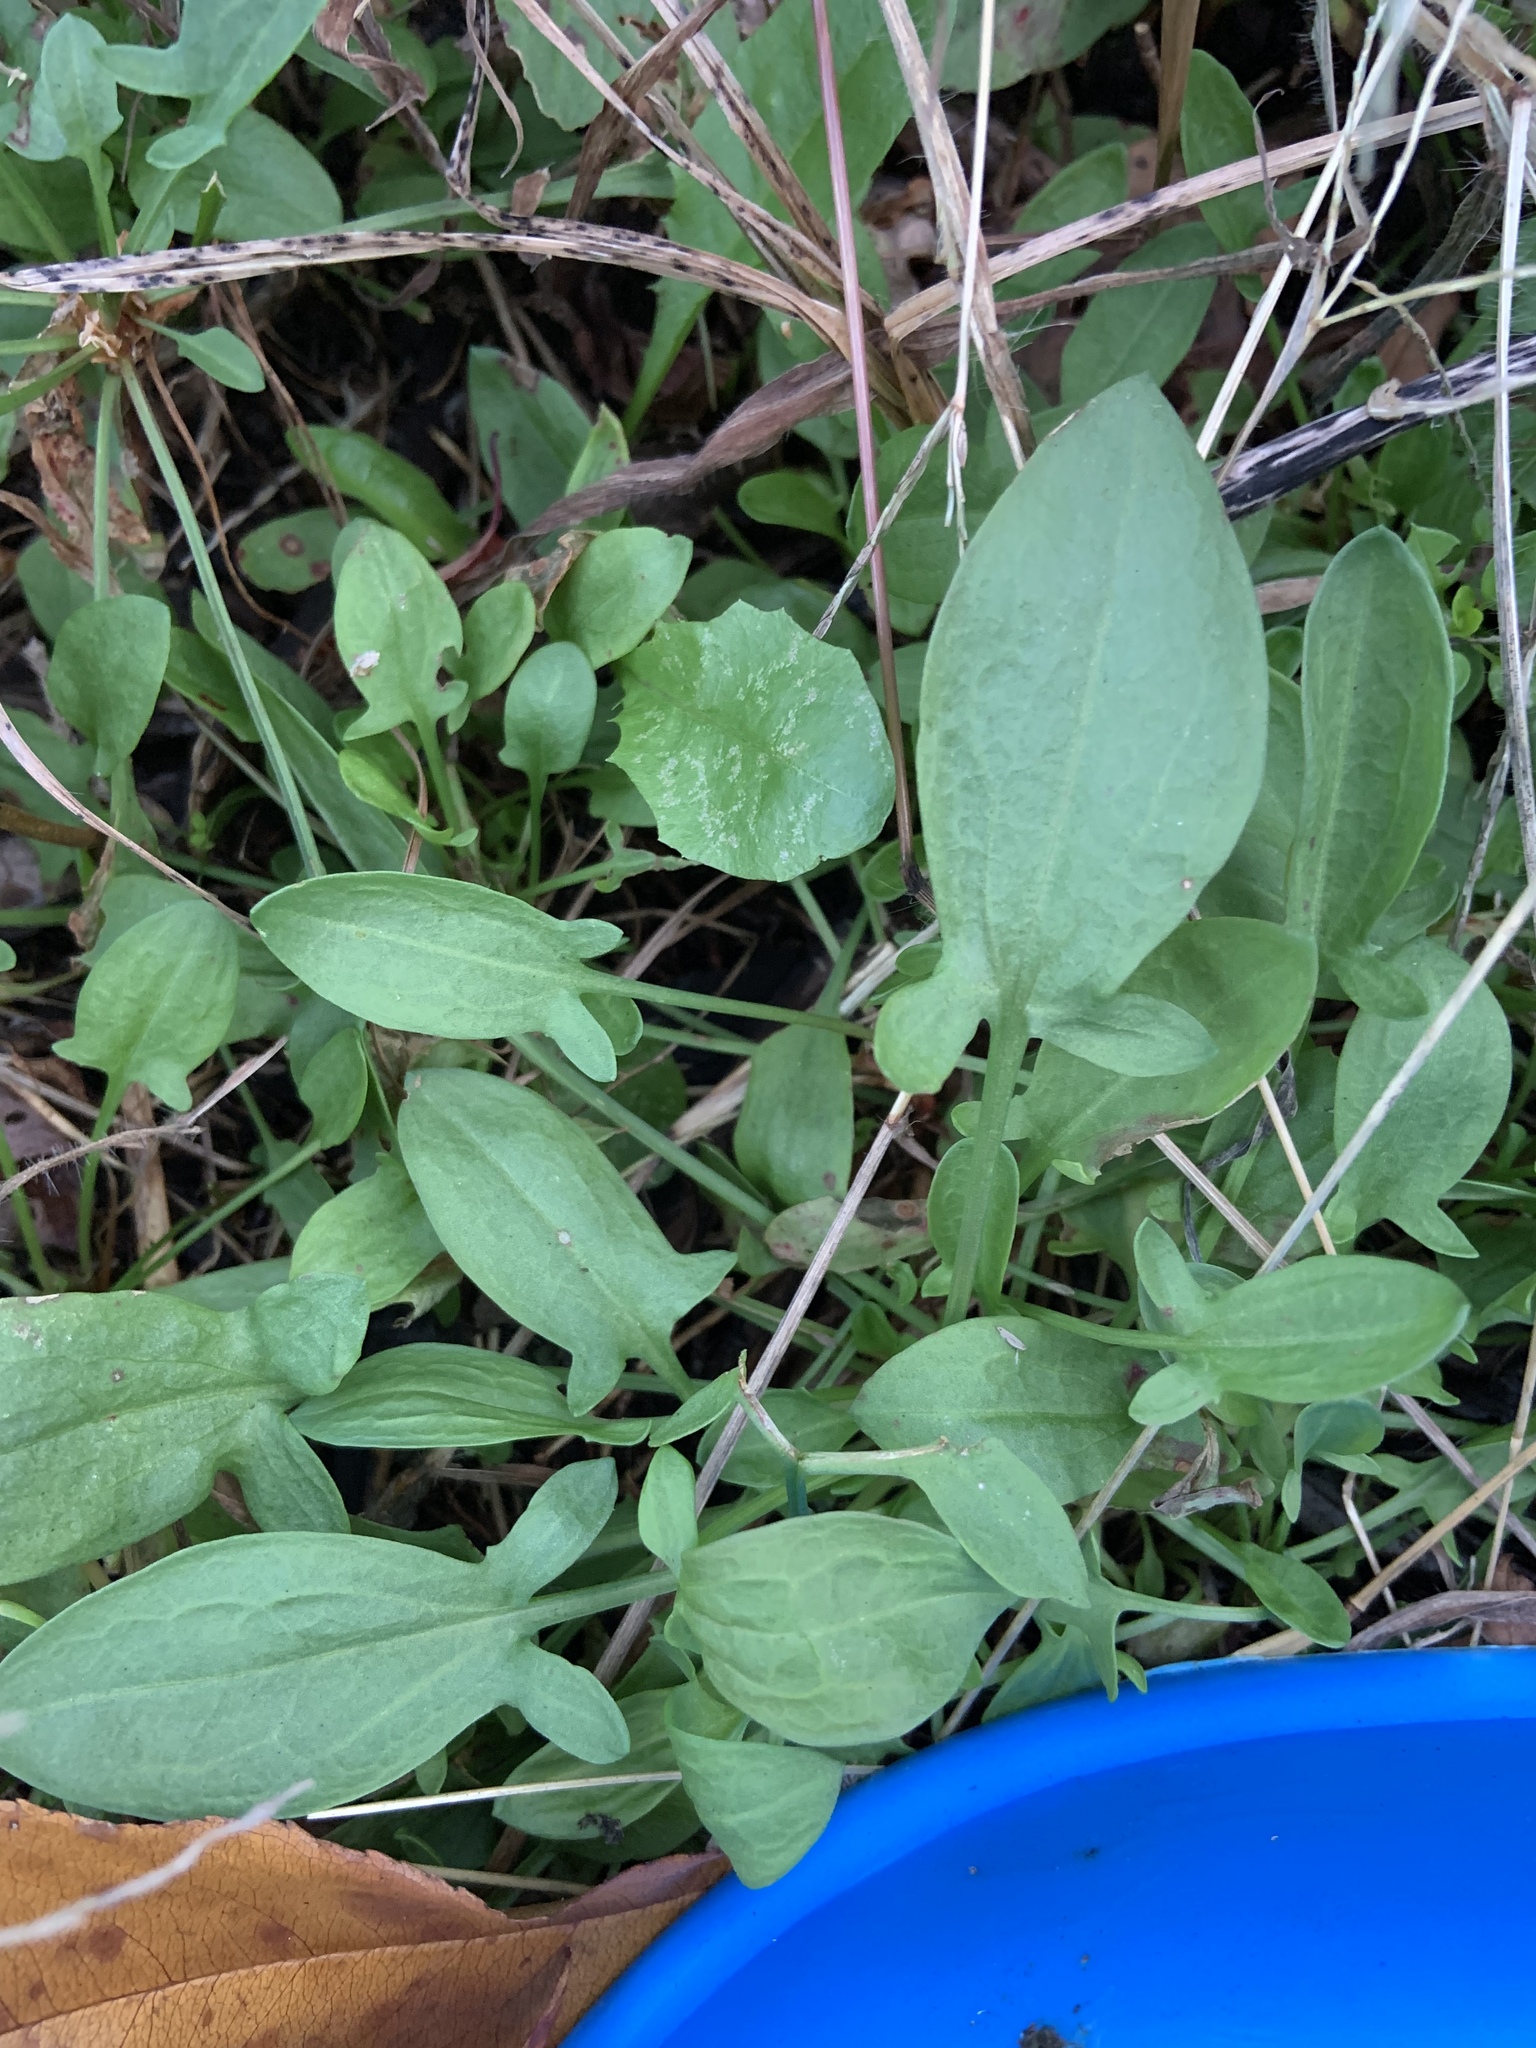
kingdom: Plantae
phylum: Tracheophyta
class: Magnoliopsida
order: Caryophyllales
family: Polygonaceae
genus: Rumex
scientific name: Rumex acetosella
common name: Common sheep sorrel
